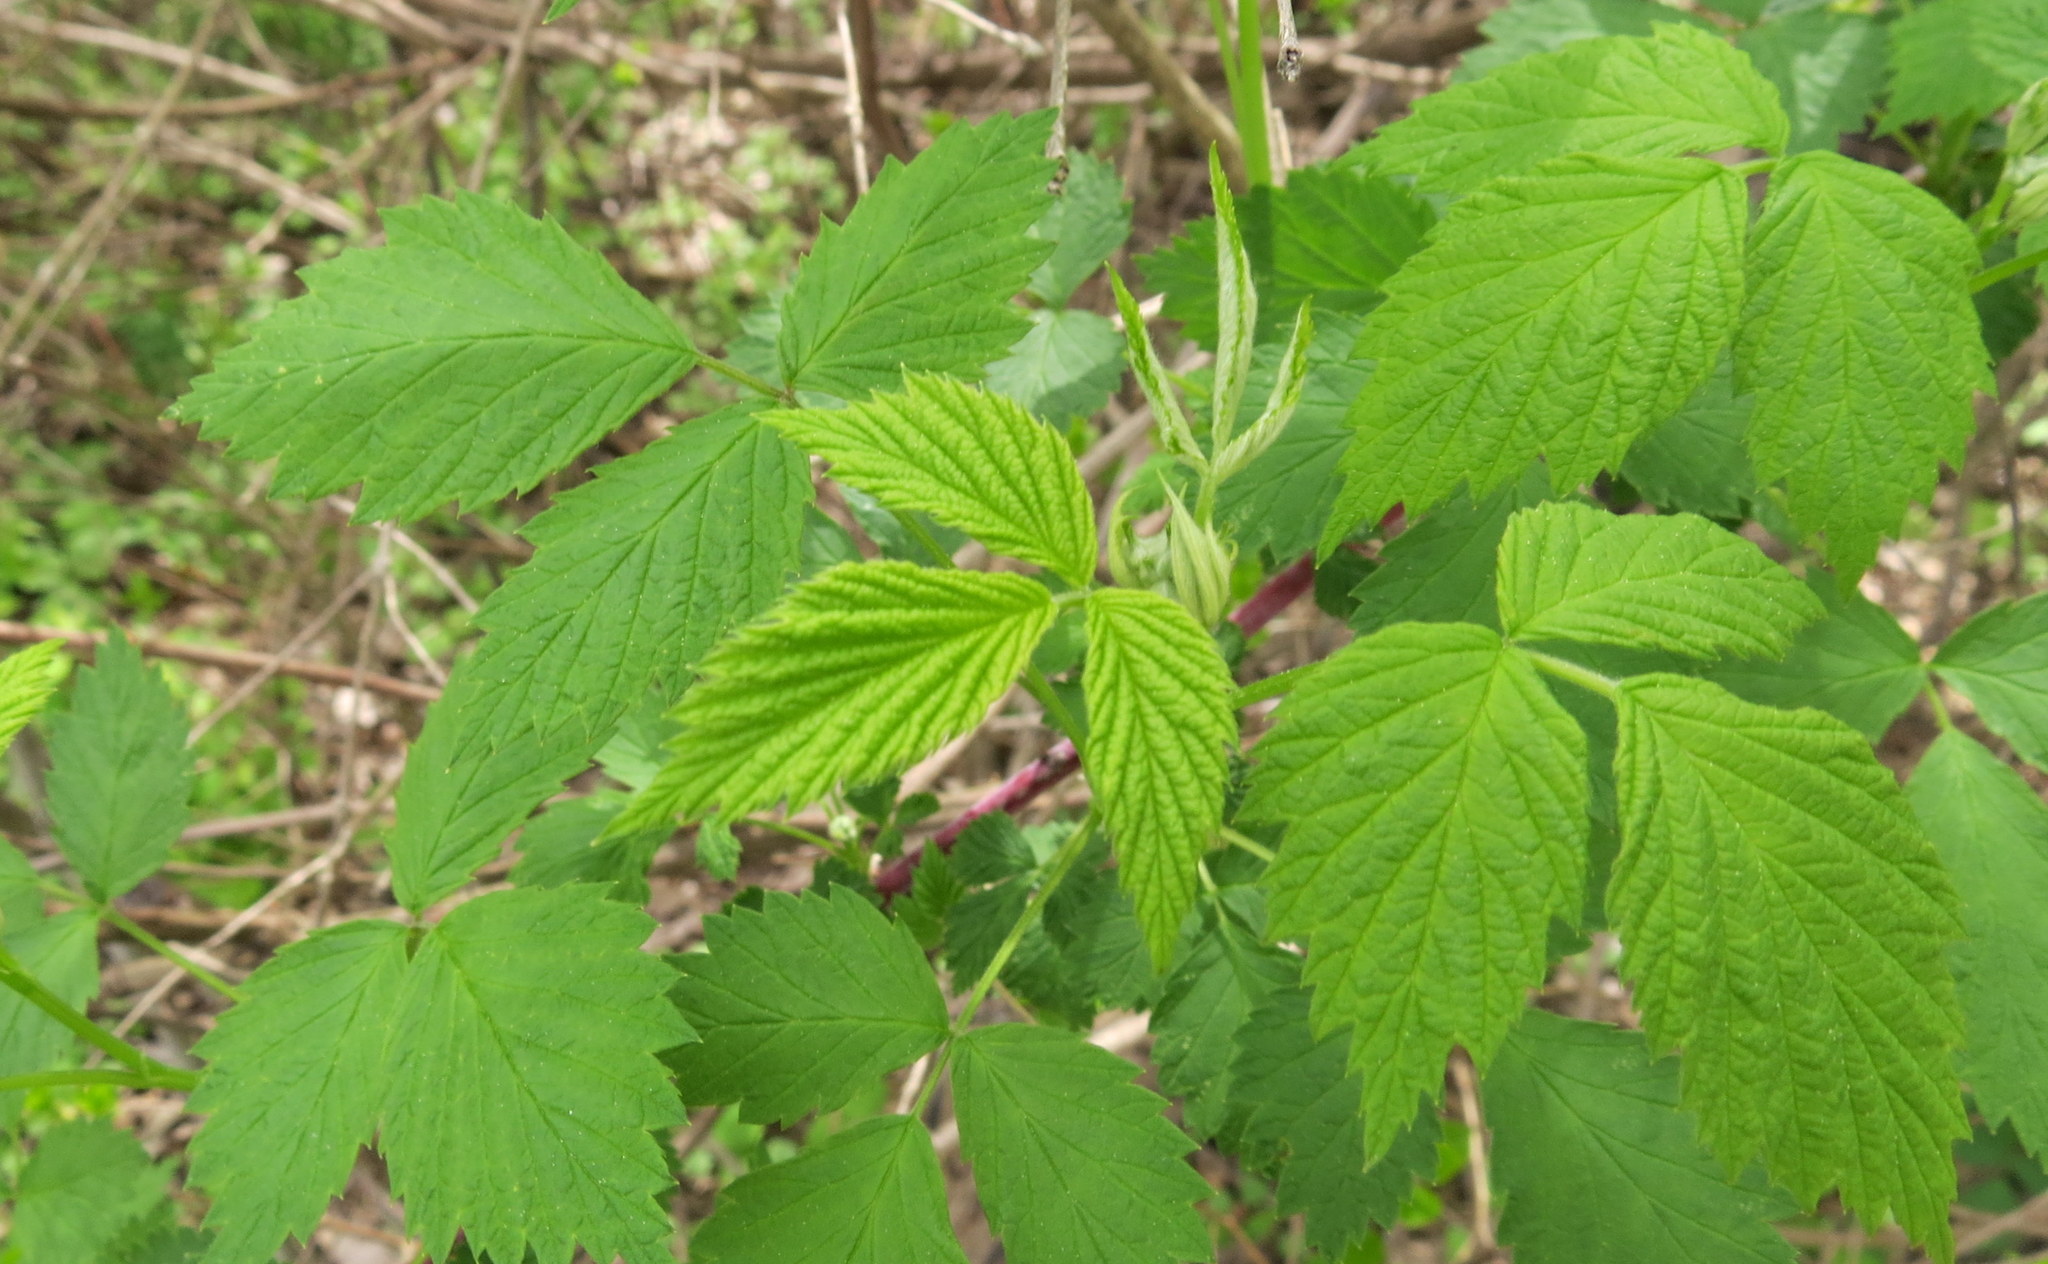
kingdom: Plantae
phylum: Tracheophyta
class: Magnoliopsida
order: Rosales
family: Rosaceae
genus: Rubus
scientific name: Rubus occidentalis
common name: Black raspberry
